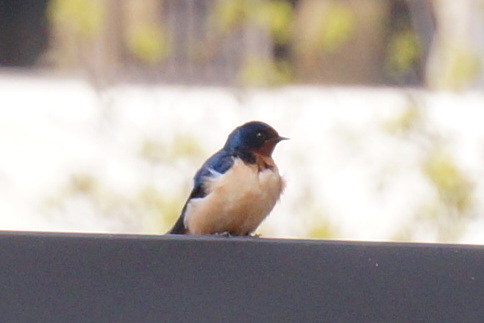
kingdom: Animalia
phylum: Chordata
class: Aves
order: Passeriformes
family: Hirundinidae
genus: Hirundo
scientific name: Hirundo rustica
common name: Barn swallow
